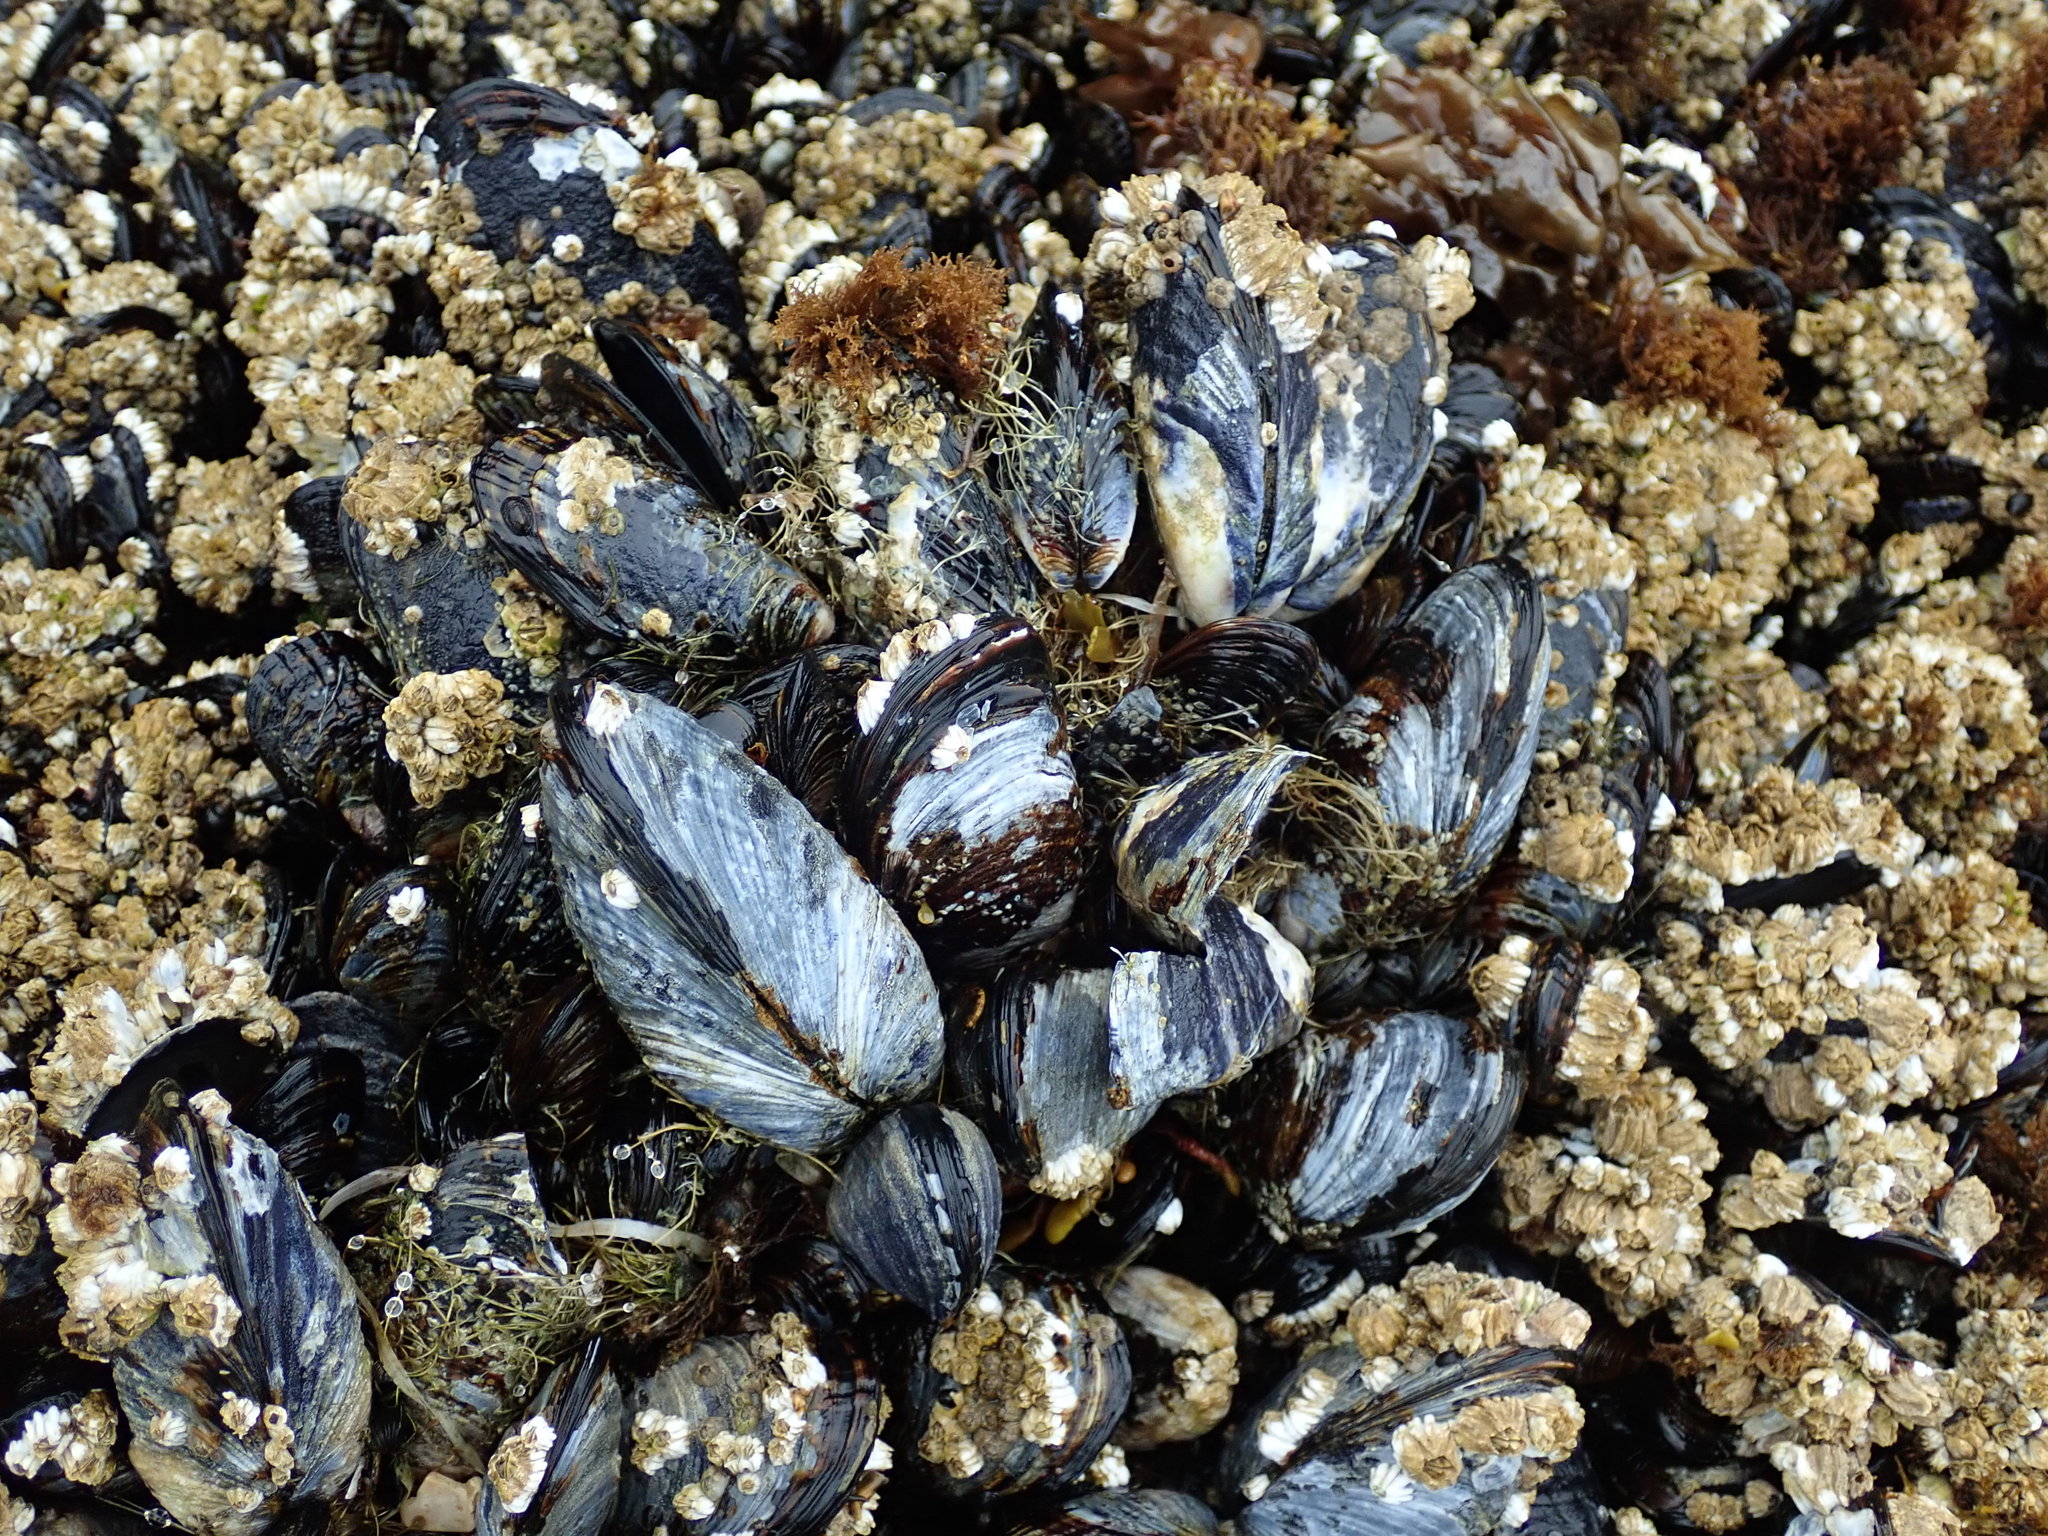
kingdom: Animalia
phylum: Mollusca
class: Bivalvia
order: Mytilida
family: Mytilidae
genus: Mytilus
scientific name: Mytilus californianus
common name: California mussel
